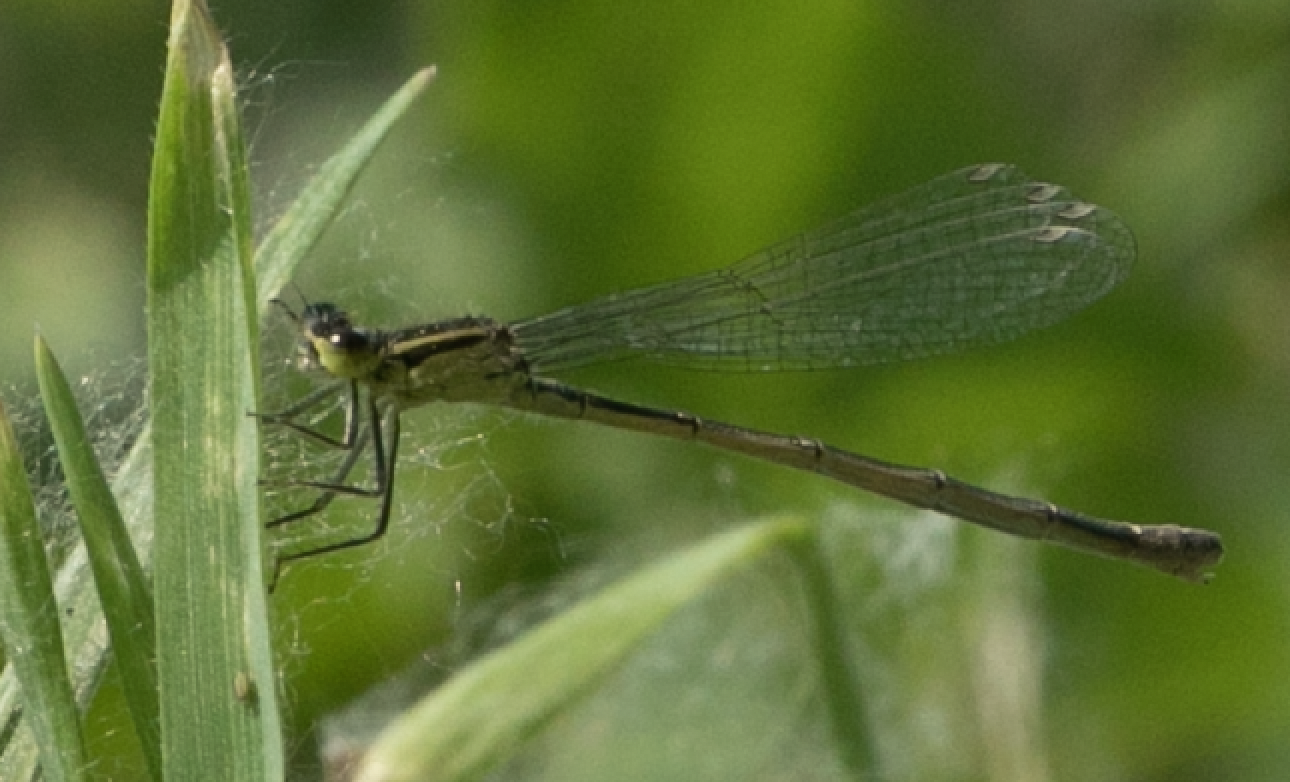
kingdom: Animalia
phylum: Arthropoda
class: Insecta
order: Odonata
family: Coenagrionidae
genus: Ischnura
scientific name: Ischnura elegans
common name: Blue-tailed damselfly
